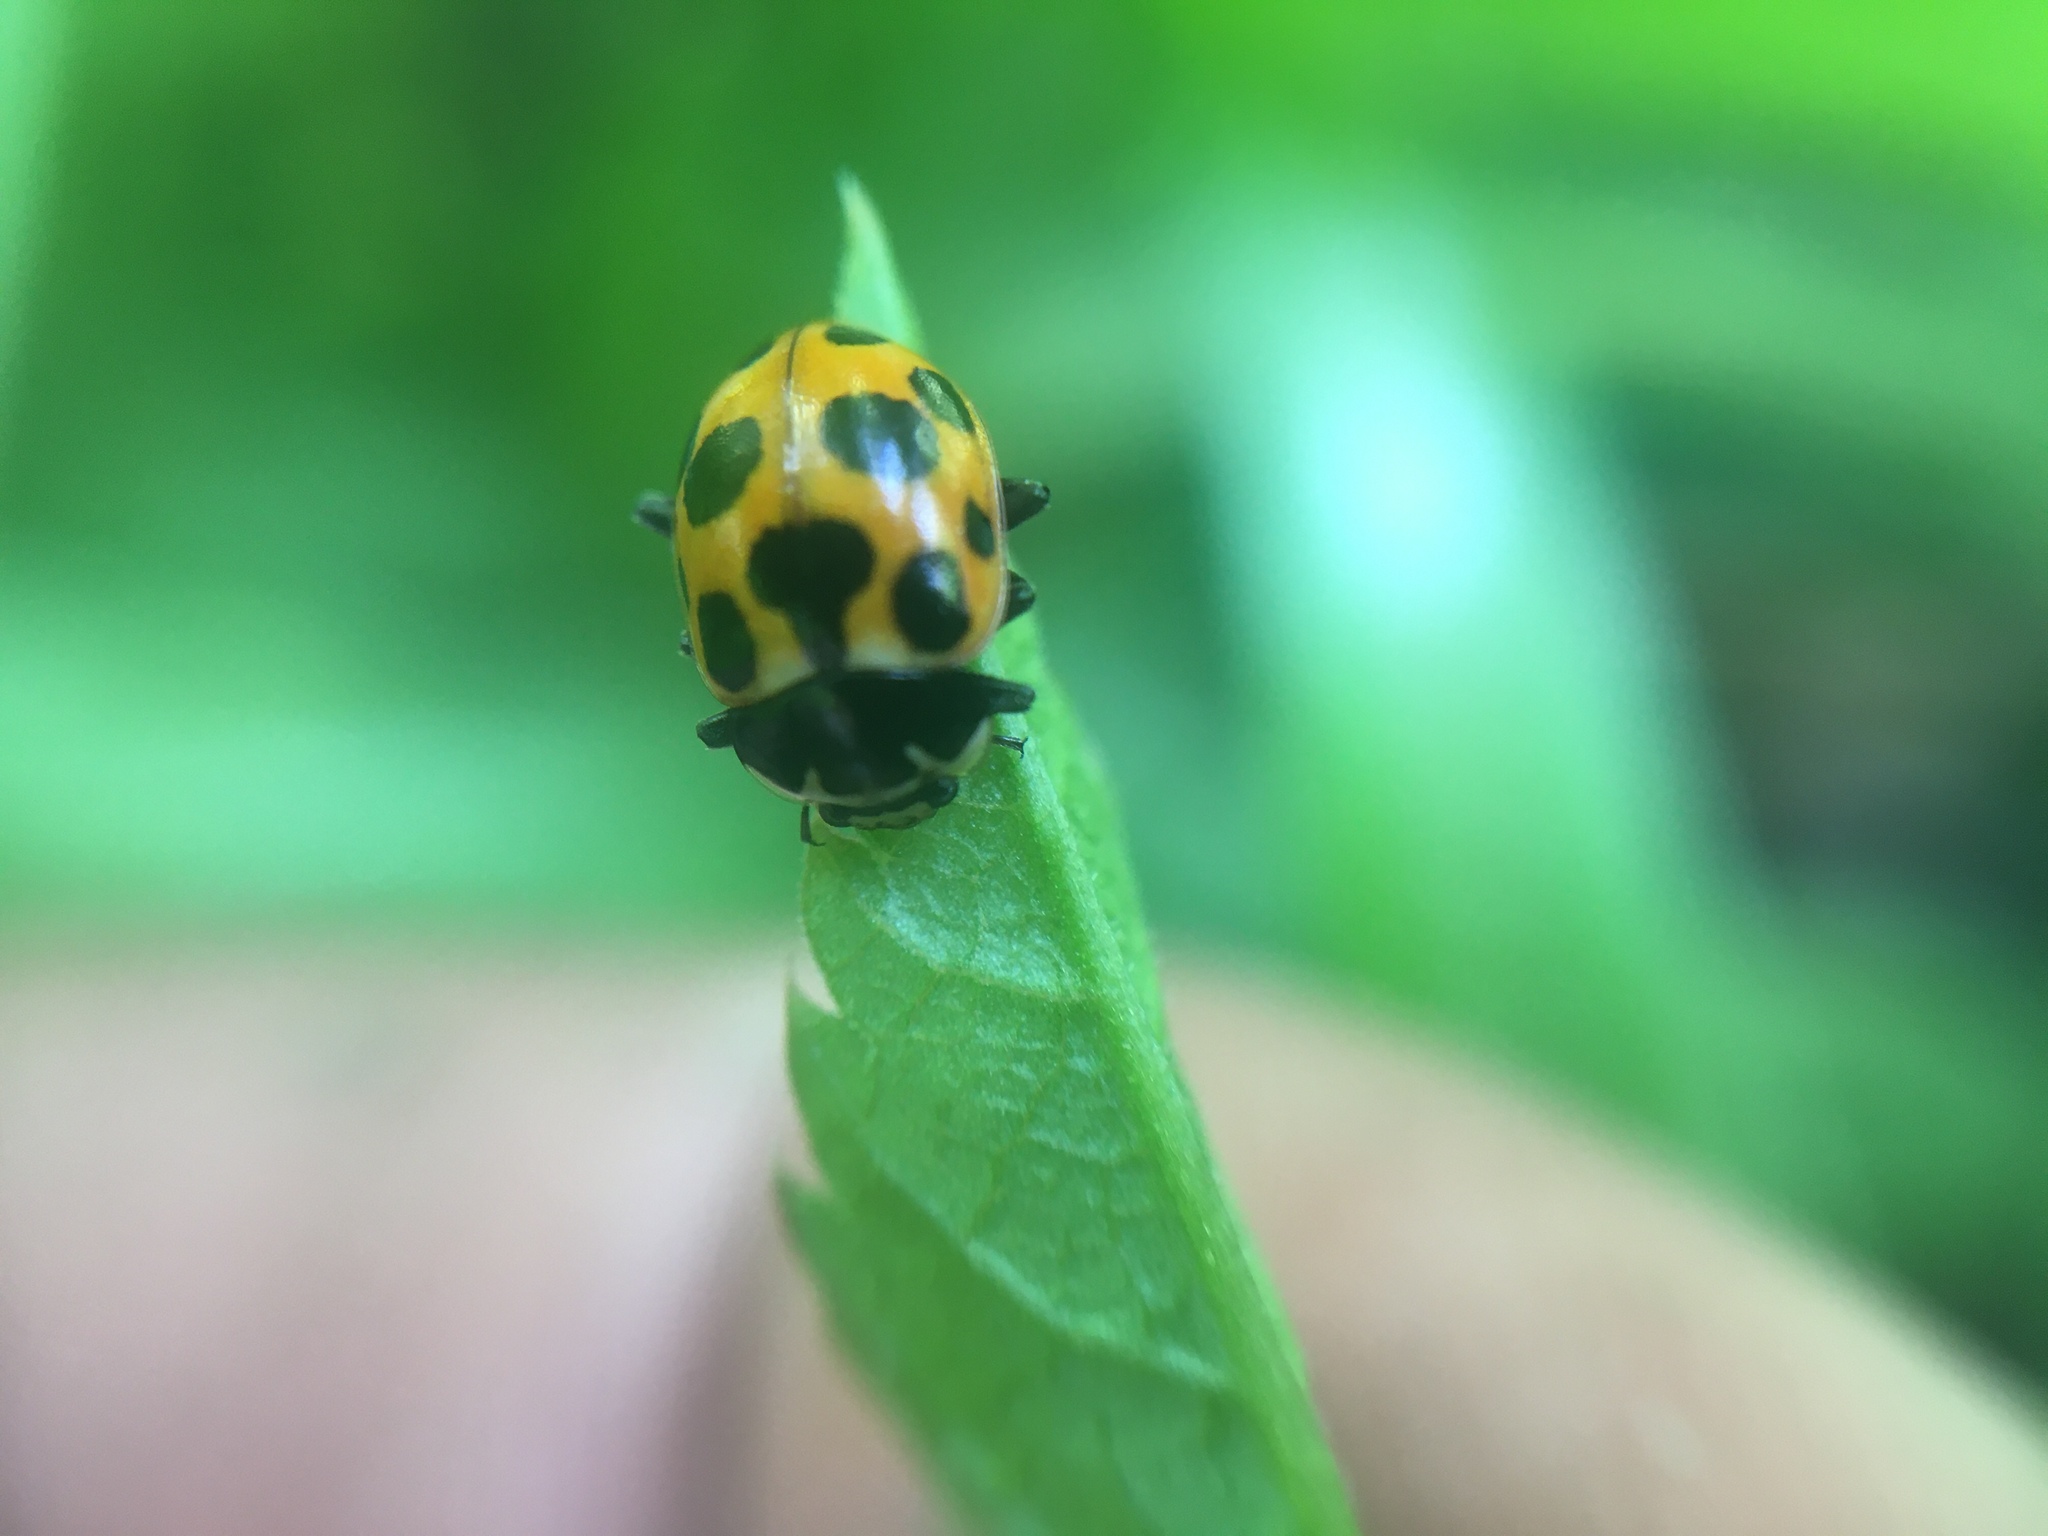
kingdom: Animalia
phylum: Arthropoda
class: Insecta
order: Coleoptera
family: Coccinellidae
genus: Ceratomegilla
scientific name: Ceratomegilla notata
